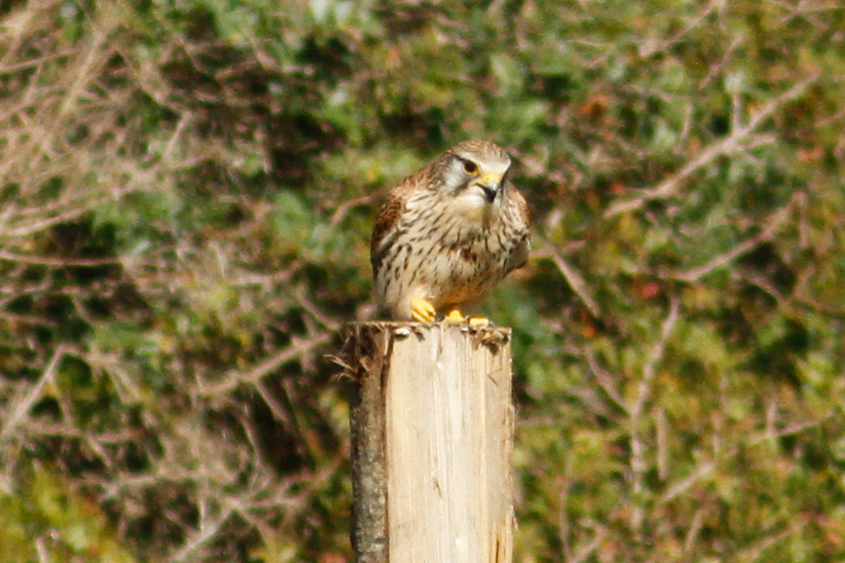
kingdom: Animalia
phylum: Chordata
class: Aves
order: Falconiformes
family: Falconidae
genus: Falco
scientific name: Falco tinnunculus
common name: Common kestrel
